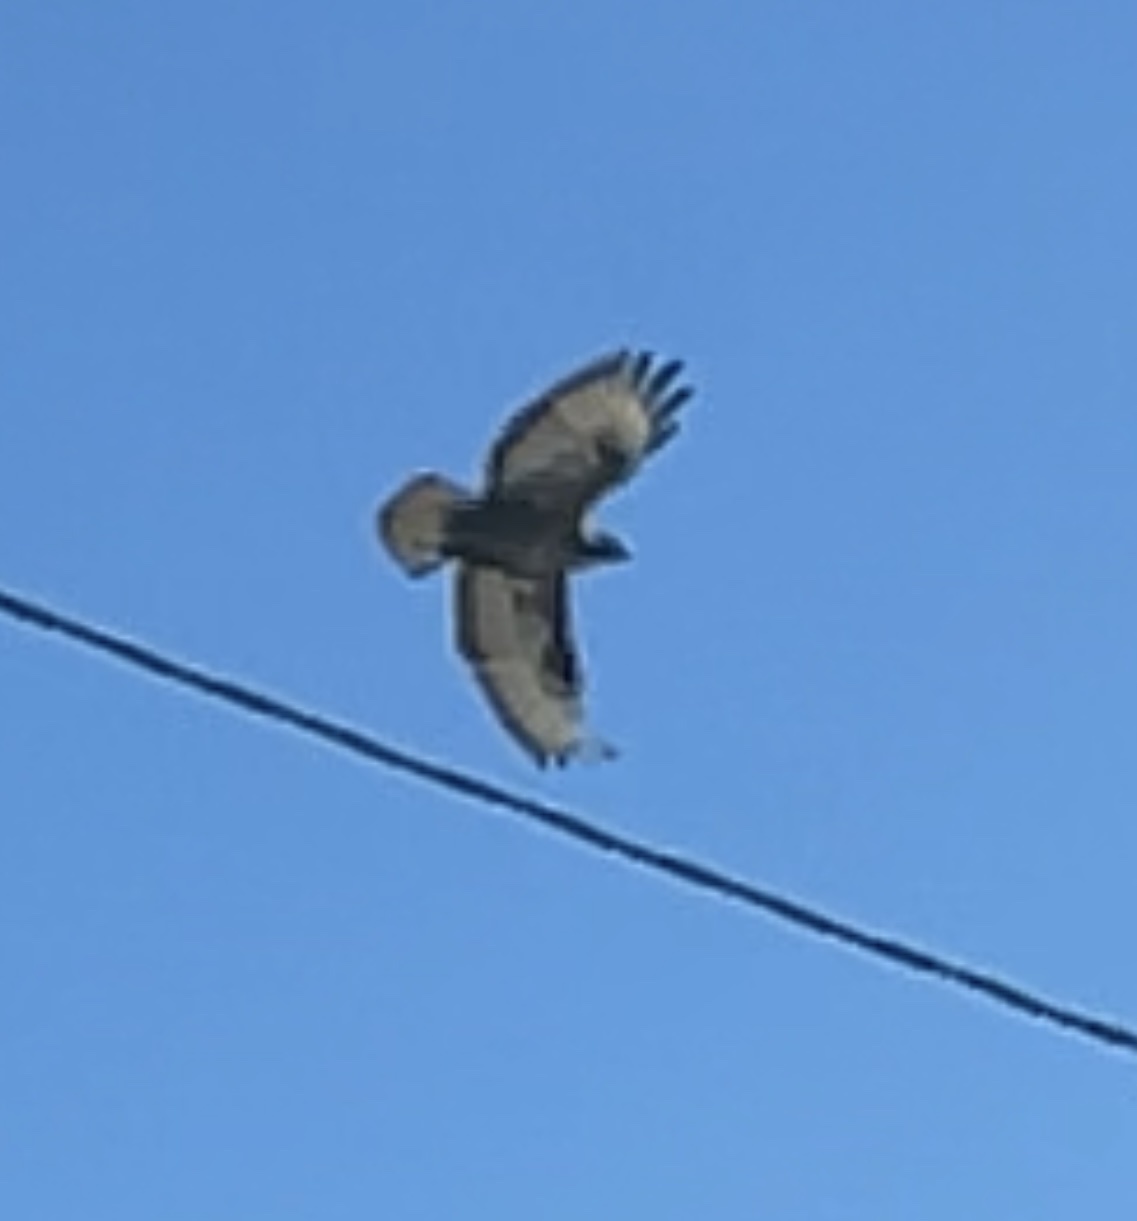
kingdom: Animalia
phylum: Chordata
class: Aves
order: Accipitriformes
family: Accipitridae
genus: Buteo
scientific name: Buteo buteo
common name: Common buzzard
